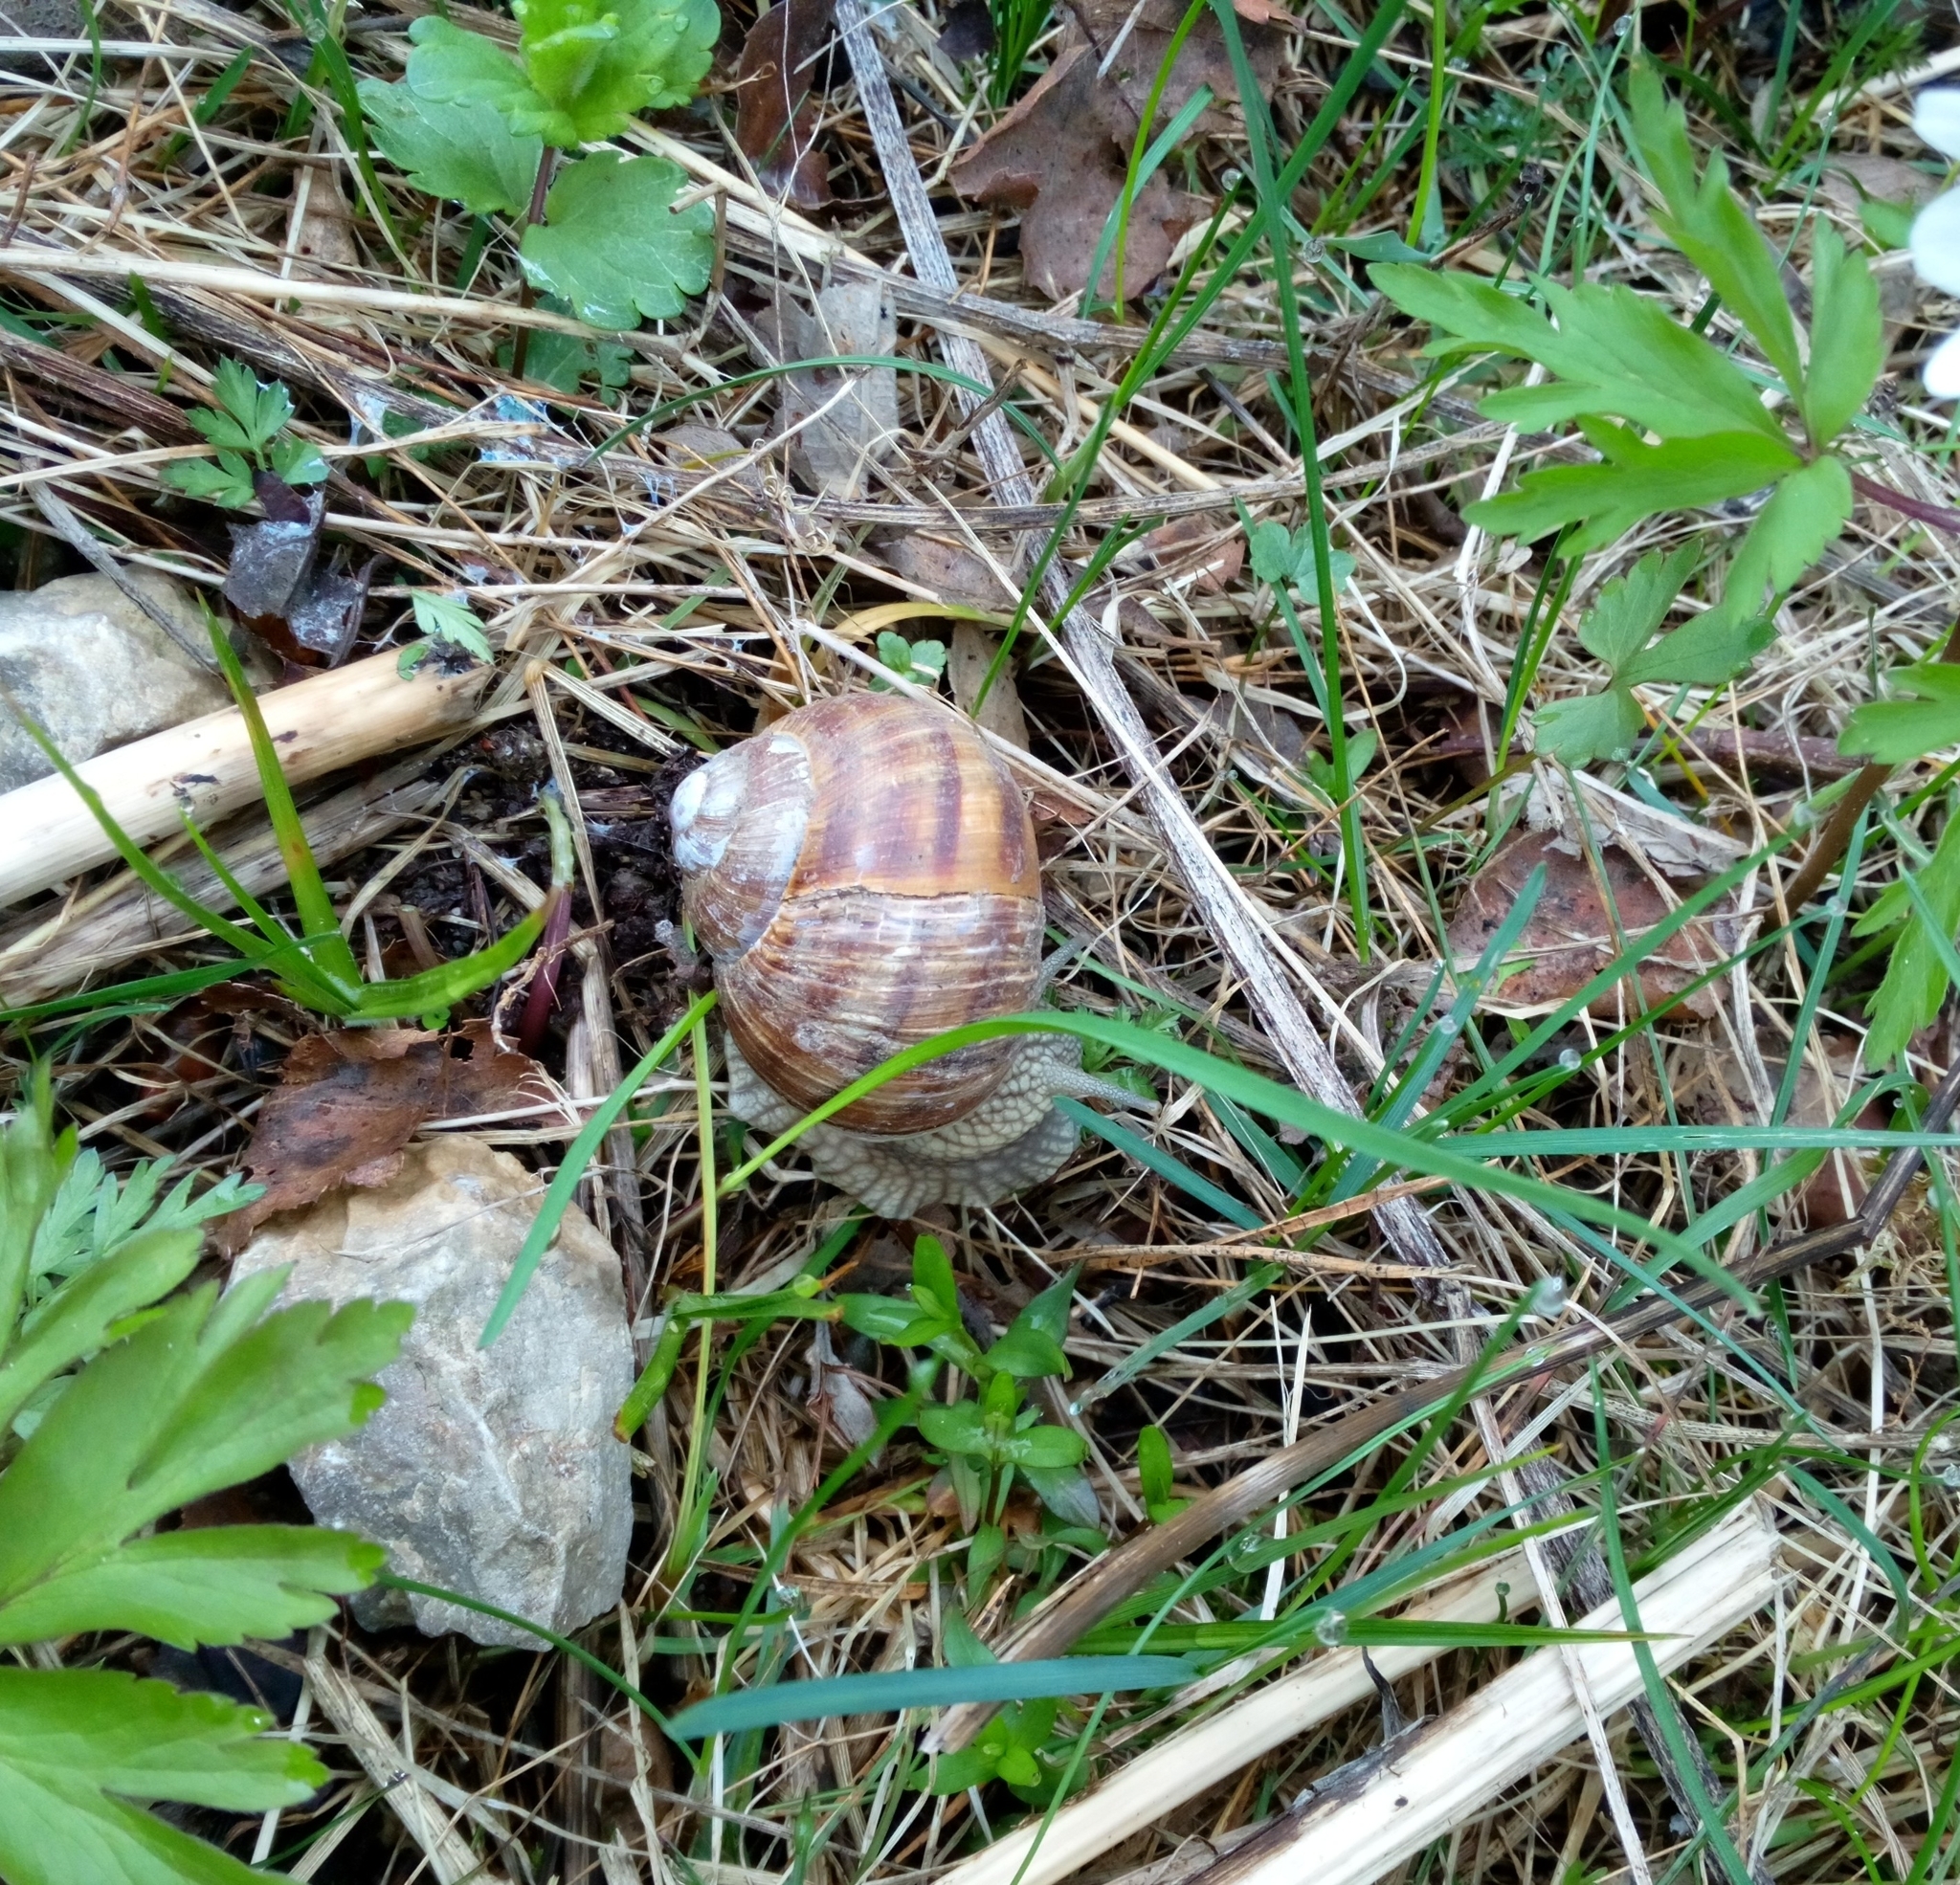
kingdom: Animalia
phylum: Mollusca
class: Gastropoda
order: Stylommatophora
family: Helicidae
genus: Helix
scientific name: Helix pomatia
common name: Roman snail
